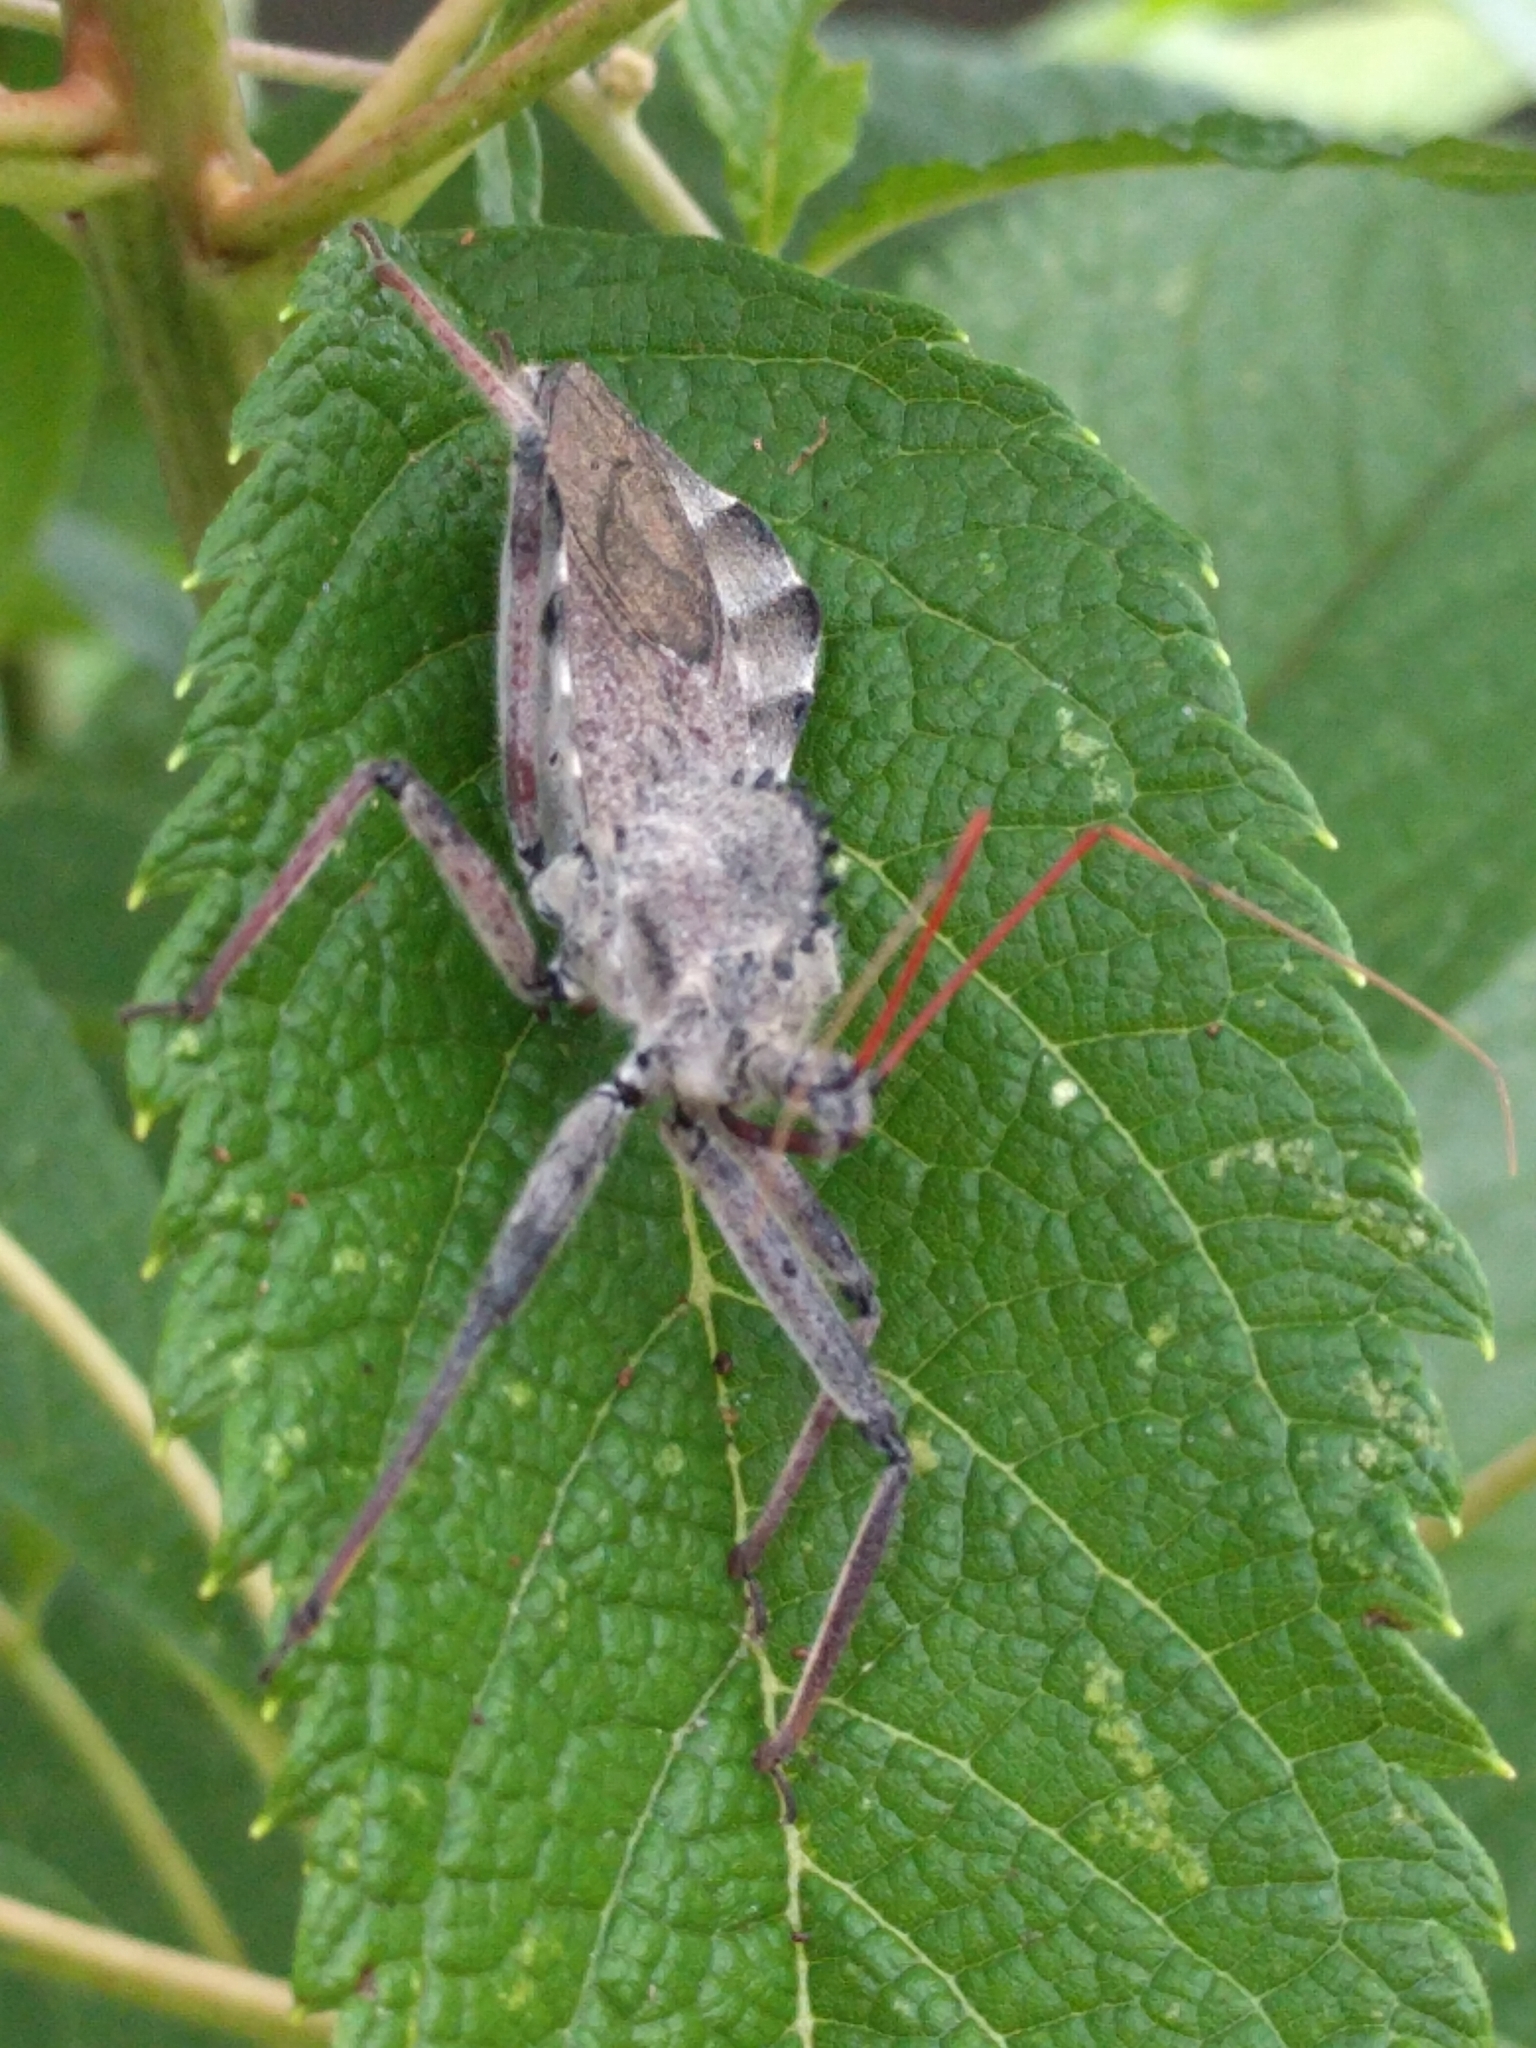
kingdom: Animalia
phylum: Arthropoda
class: Insecta
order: Hemiptera
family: Reduviidae
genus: Arilus
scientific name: Arilus cristatus
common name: North american wheel bug
